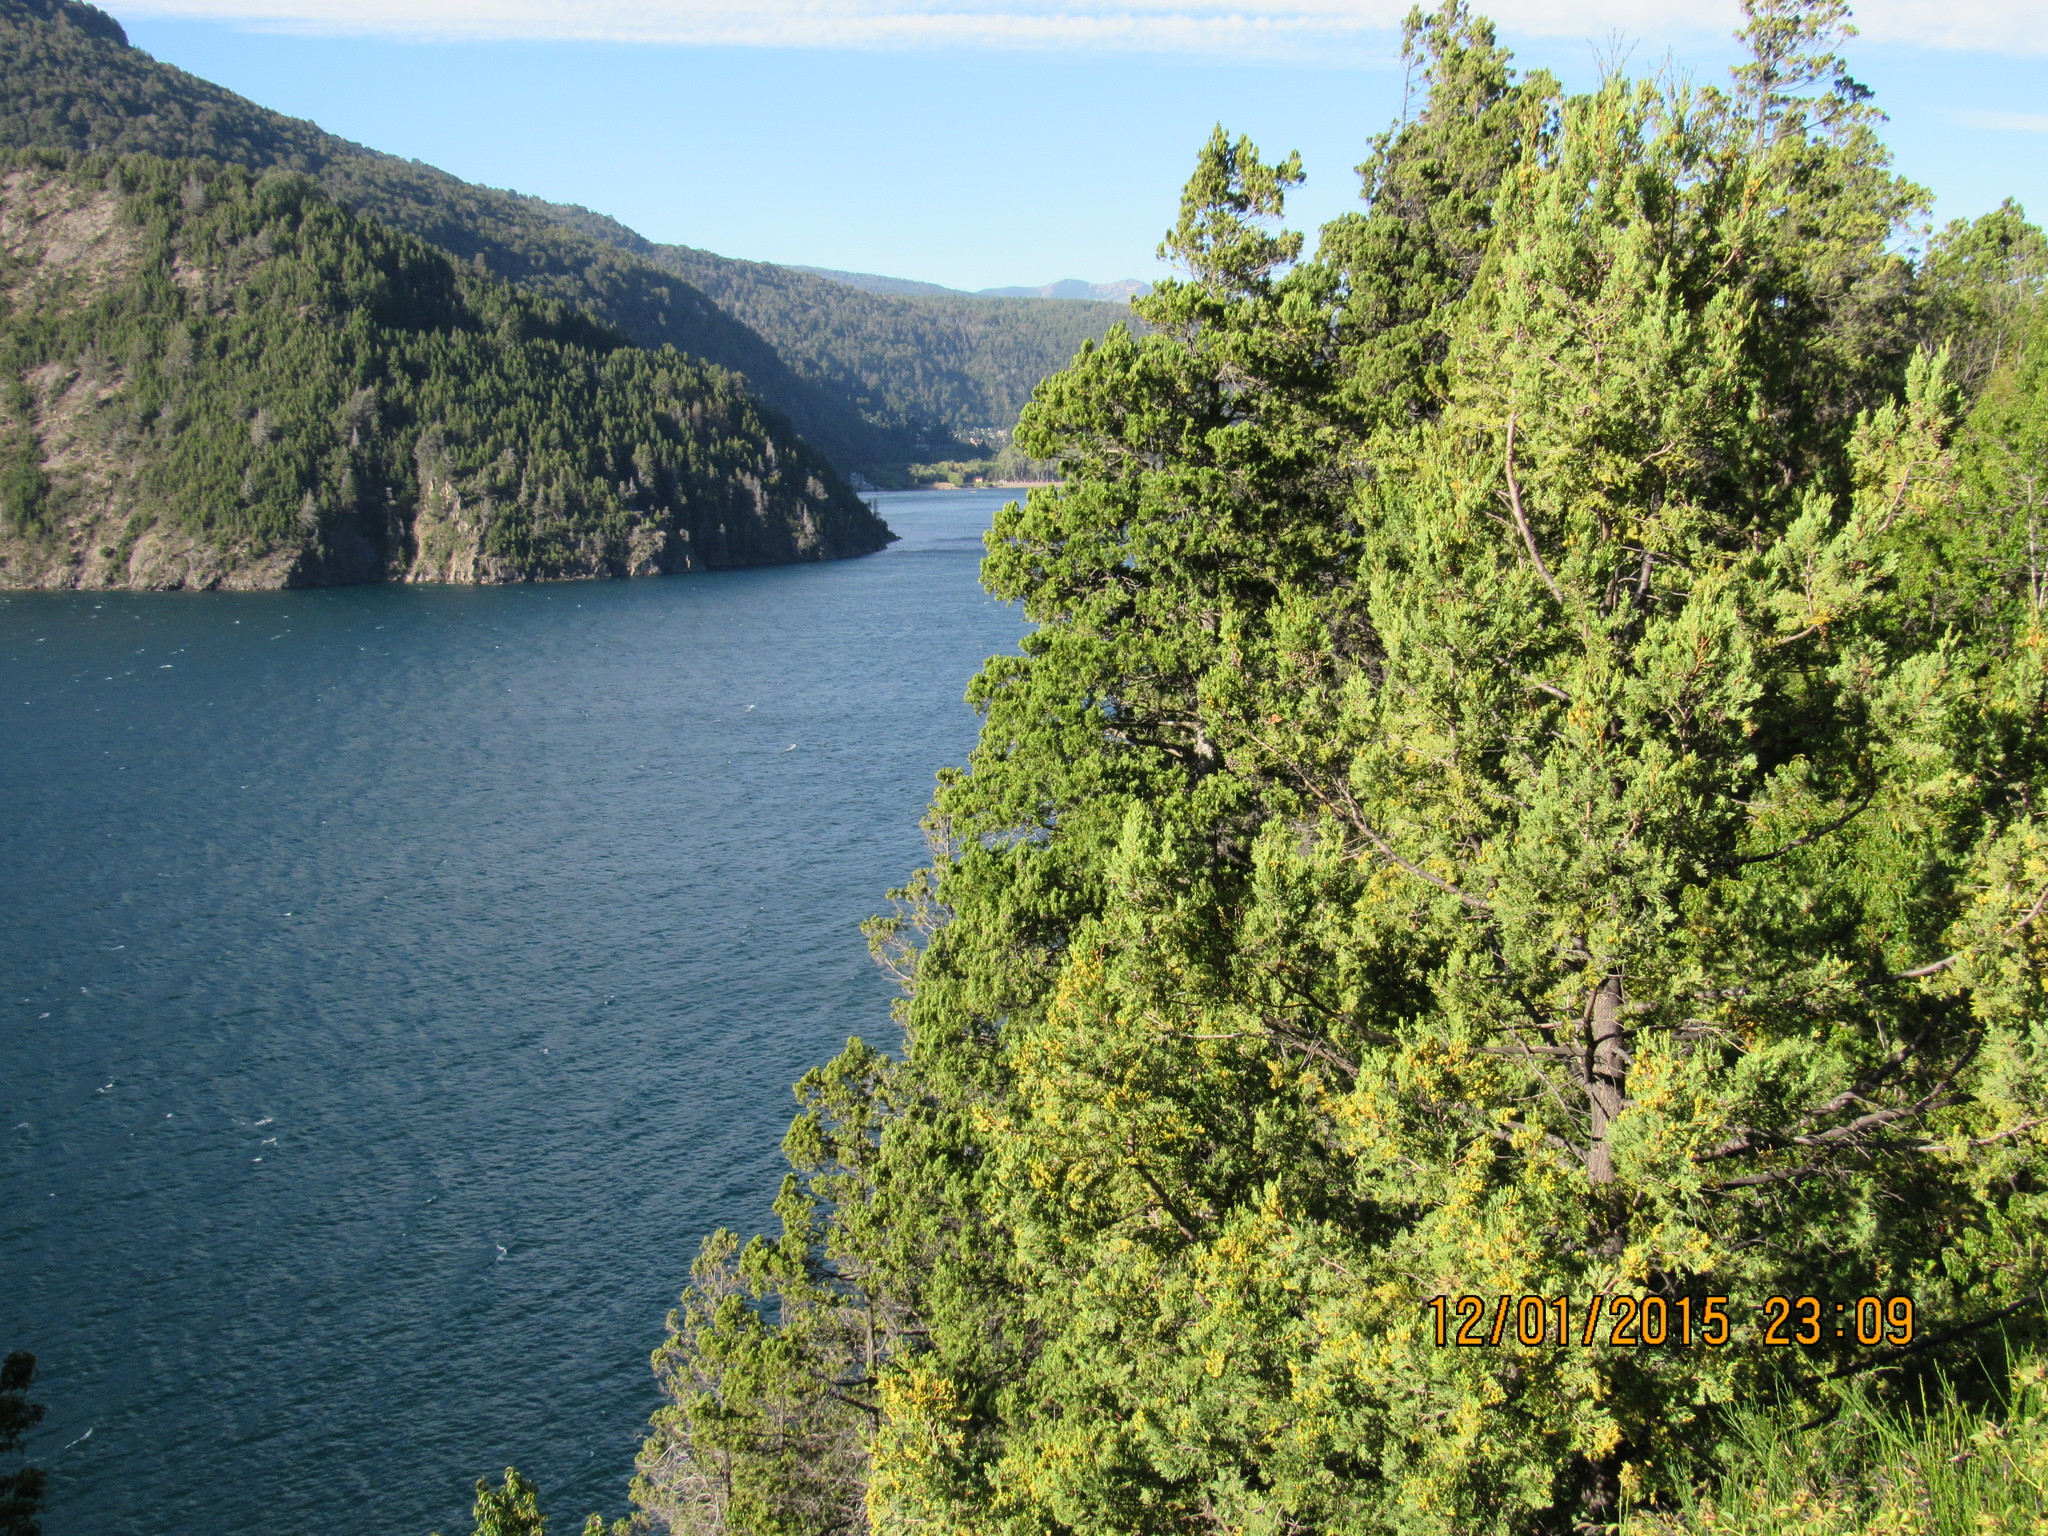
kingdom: Plantae
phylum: Tracheophyta
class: Pinopsida
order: Pinales
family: Cupressaceae
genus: Austrocedrus
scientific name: Austrocedrus chilensis
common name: Chilean incense-cedar
